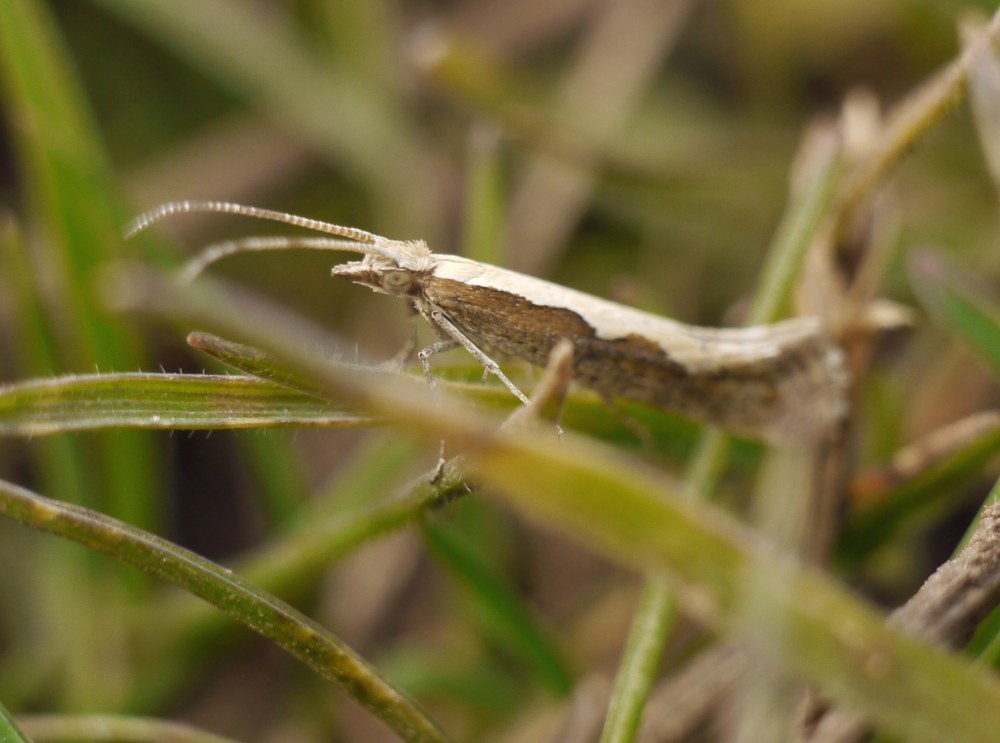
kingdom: Animalia
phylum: Arthropoda
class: Insecta
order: Lepidoptera
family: Plutellidae
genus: Plutella
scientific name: Plutella xylostella
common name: Diamond-back moth
